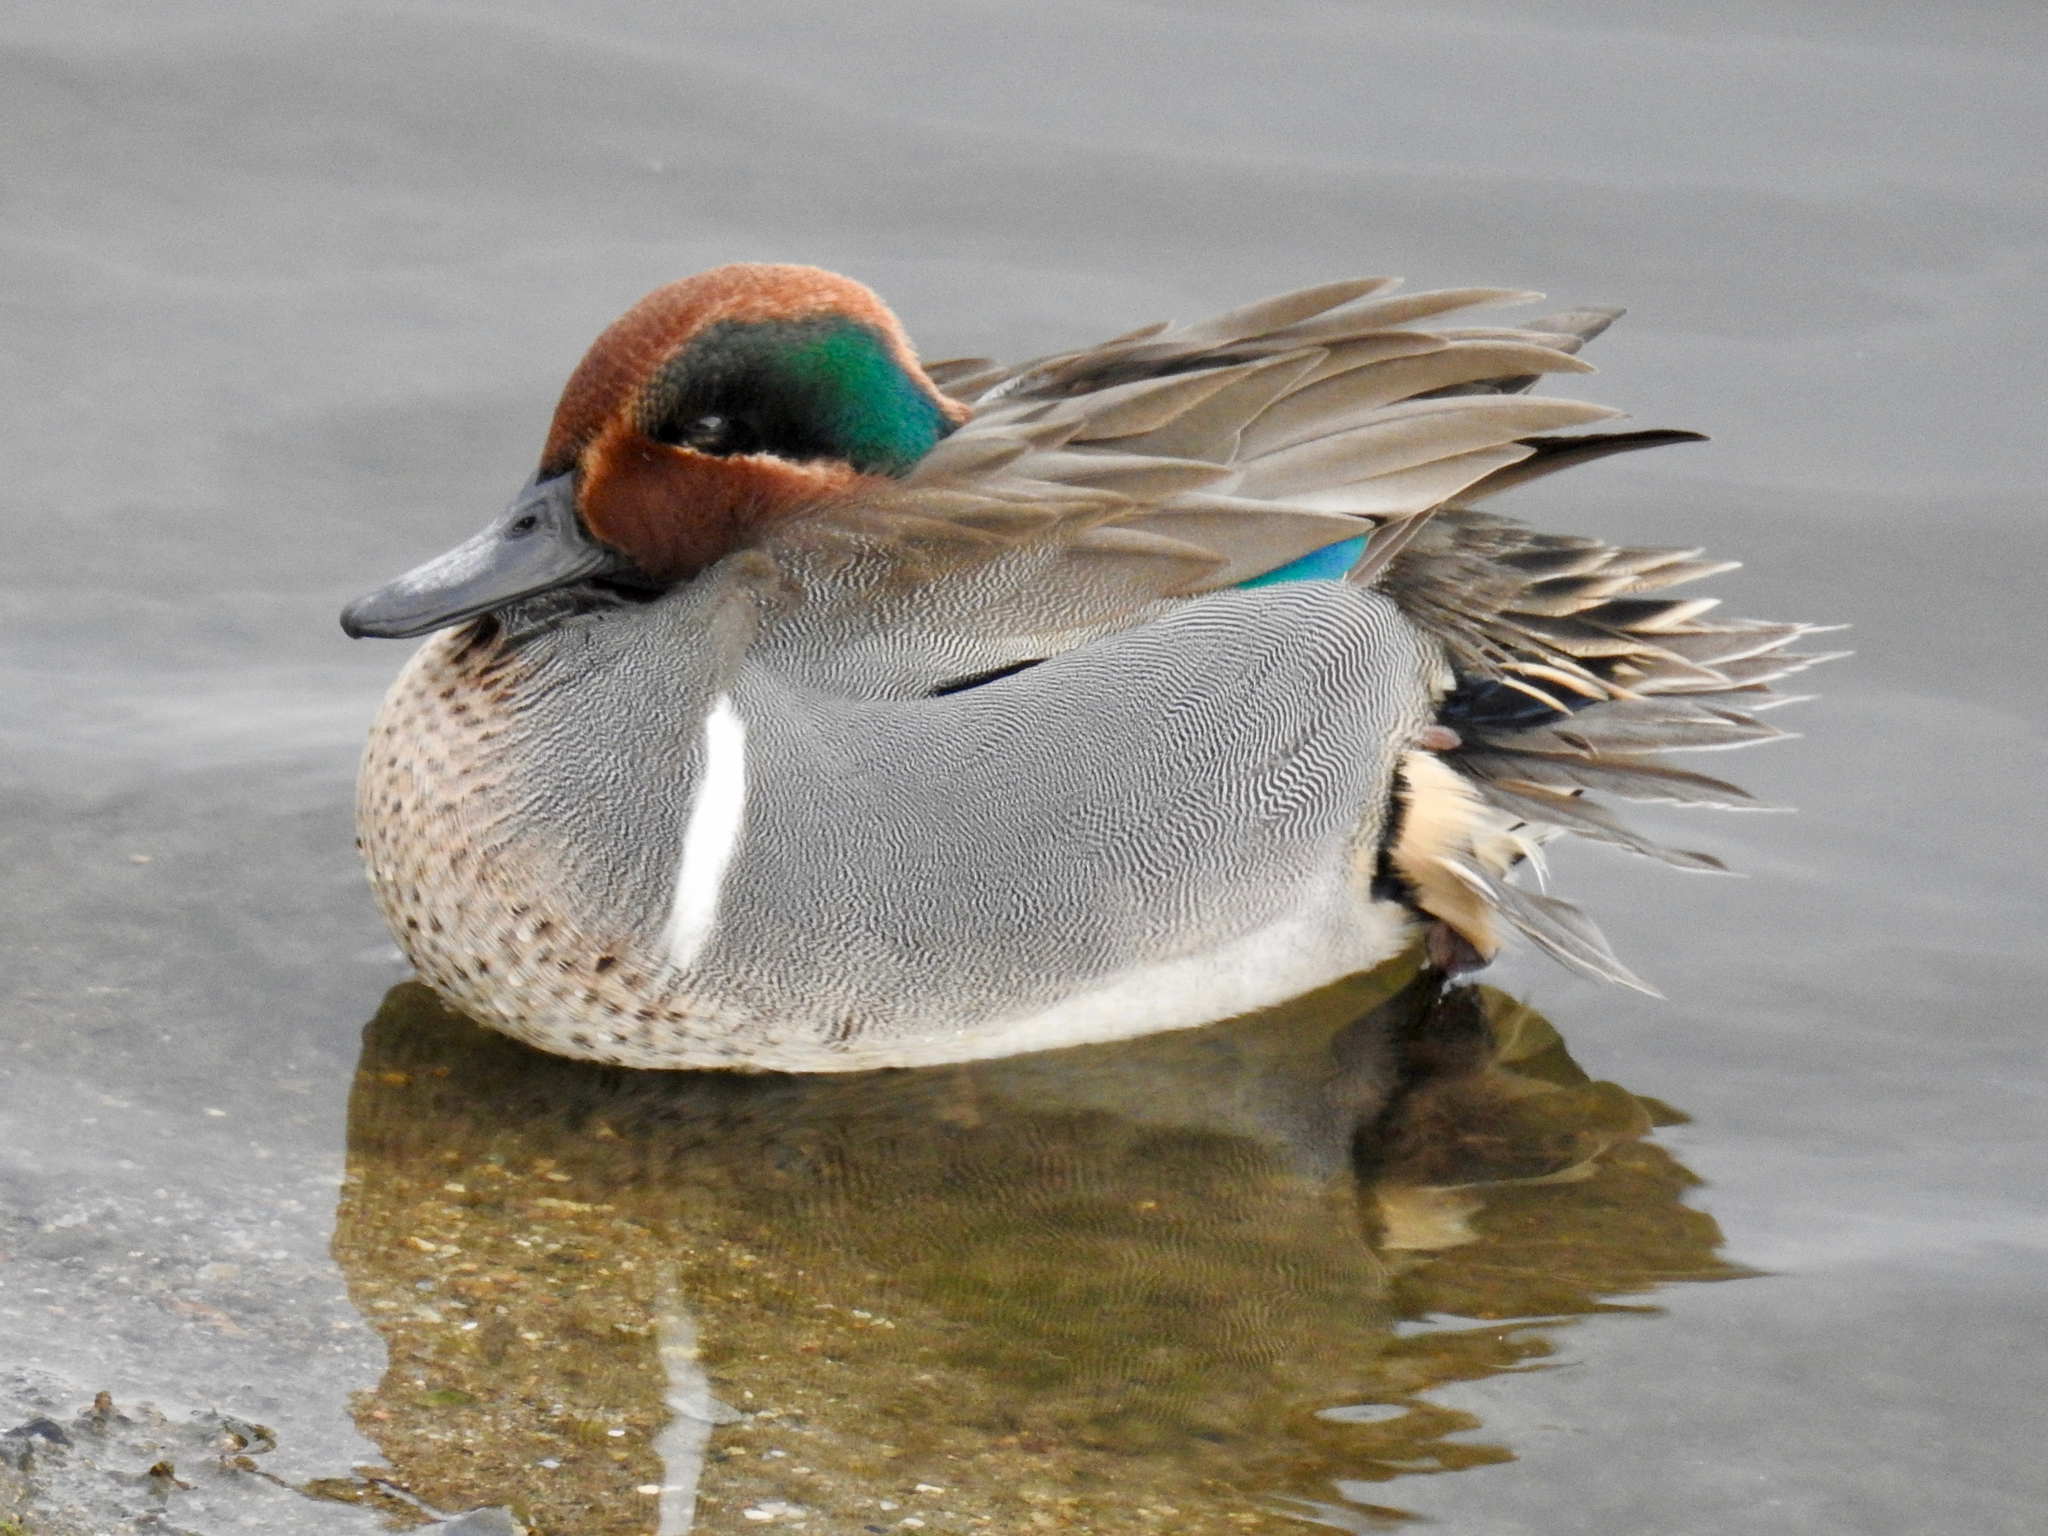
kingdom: Animalia
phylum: Chordata
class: Aves
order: Anseriformes
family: Anatidae
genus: Anas
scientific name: Anas crecca
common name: Eurasian teal
